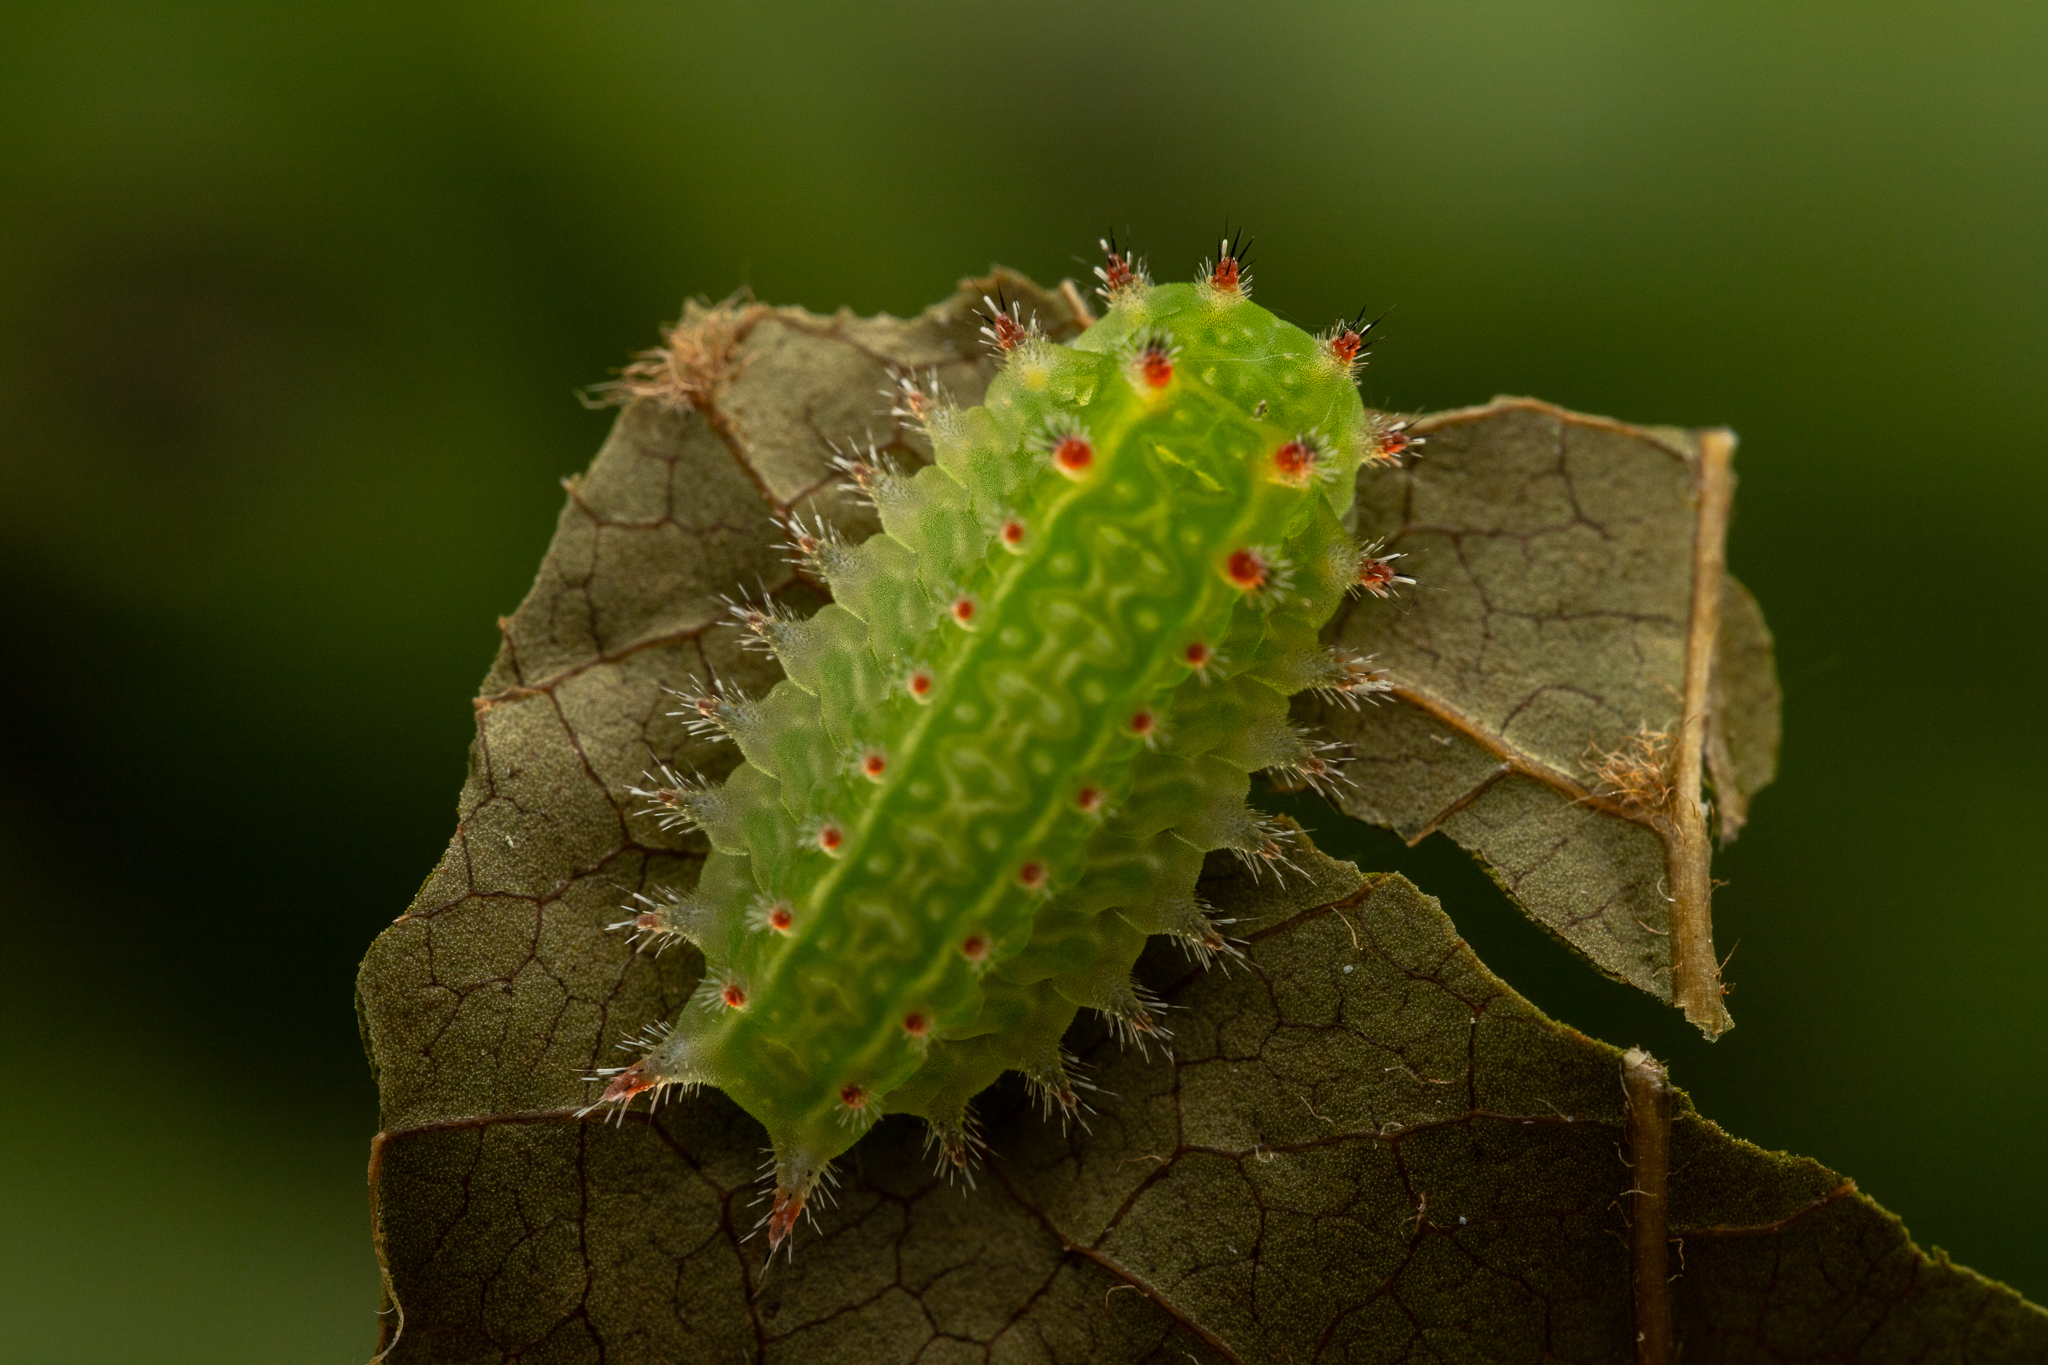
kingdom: Animalia
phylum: Arthropoda
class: Insecta
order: Lepidoptera
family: Limacodidae
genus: Natada
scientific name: Natada nasoni
